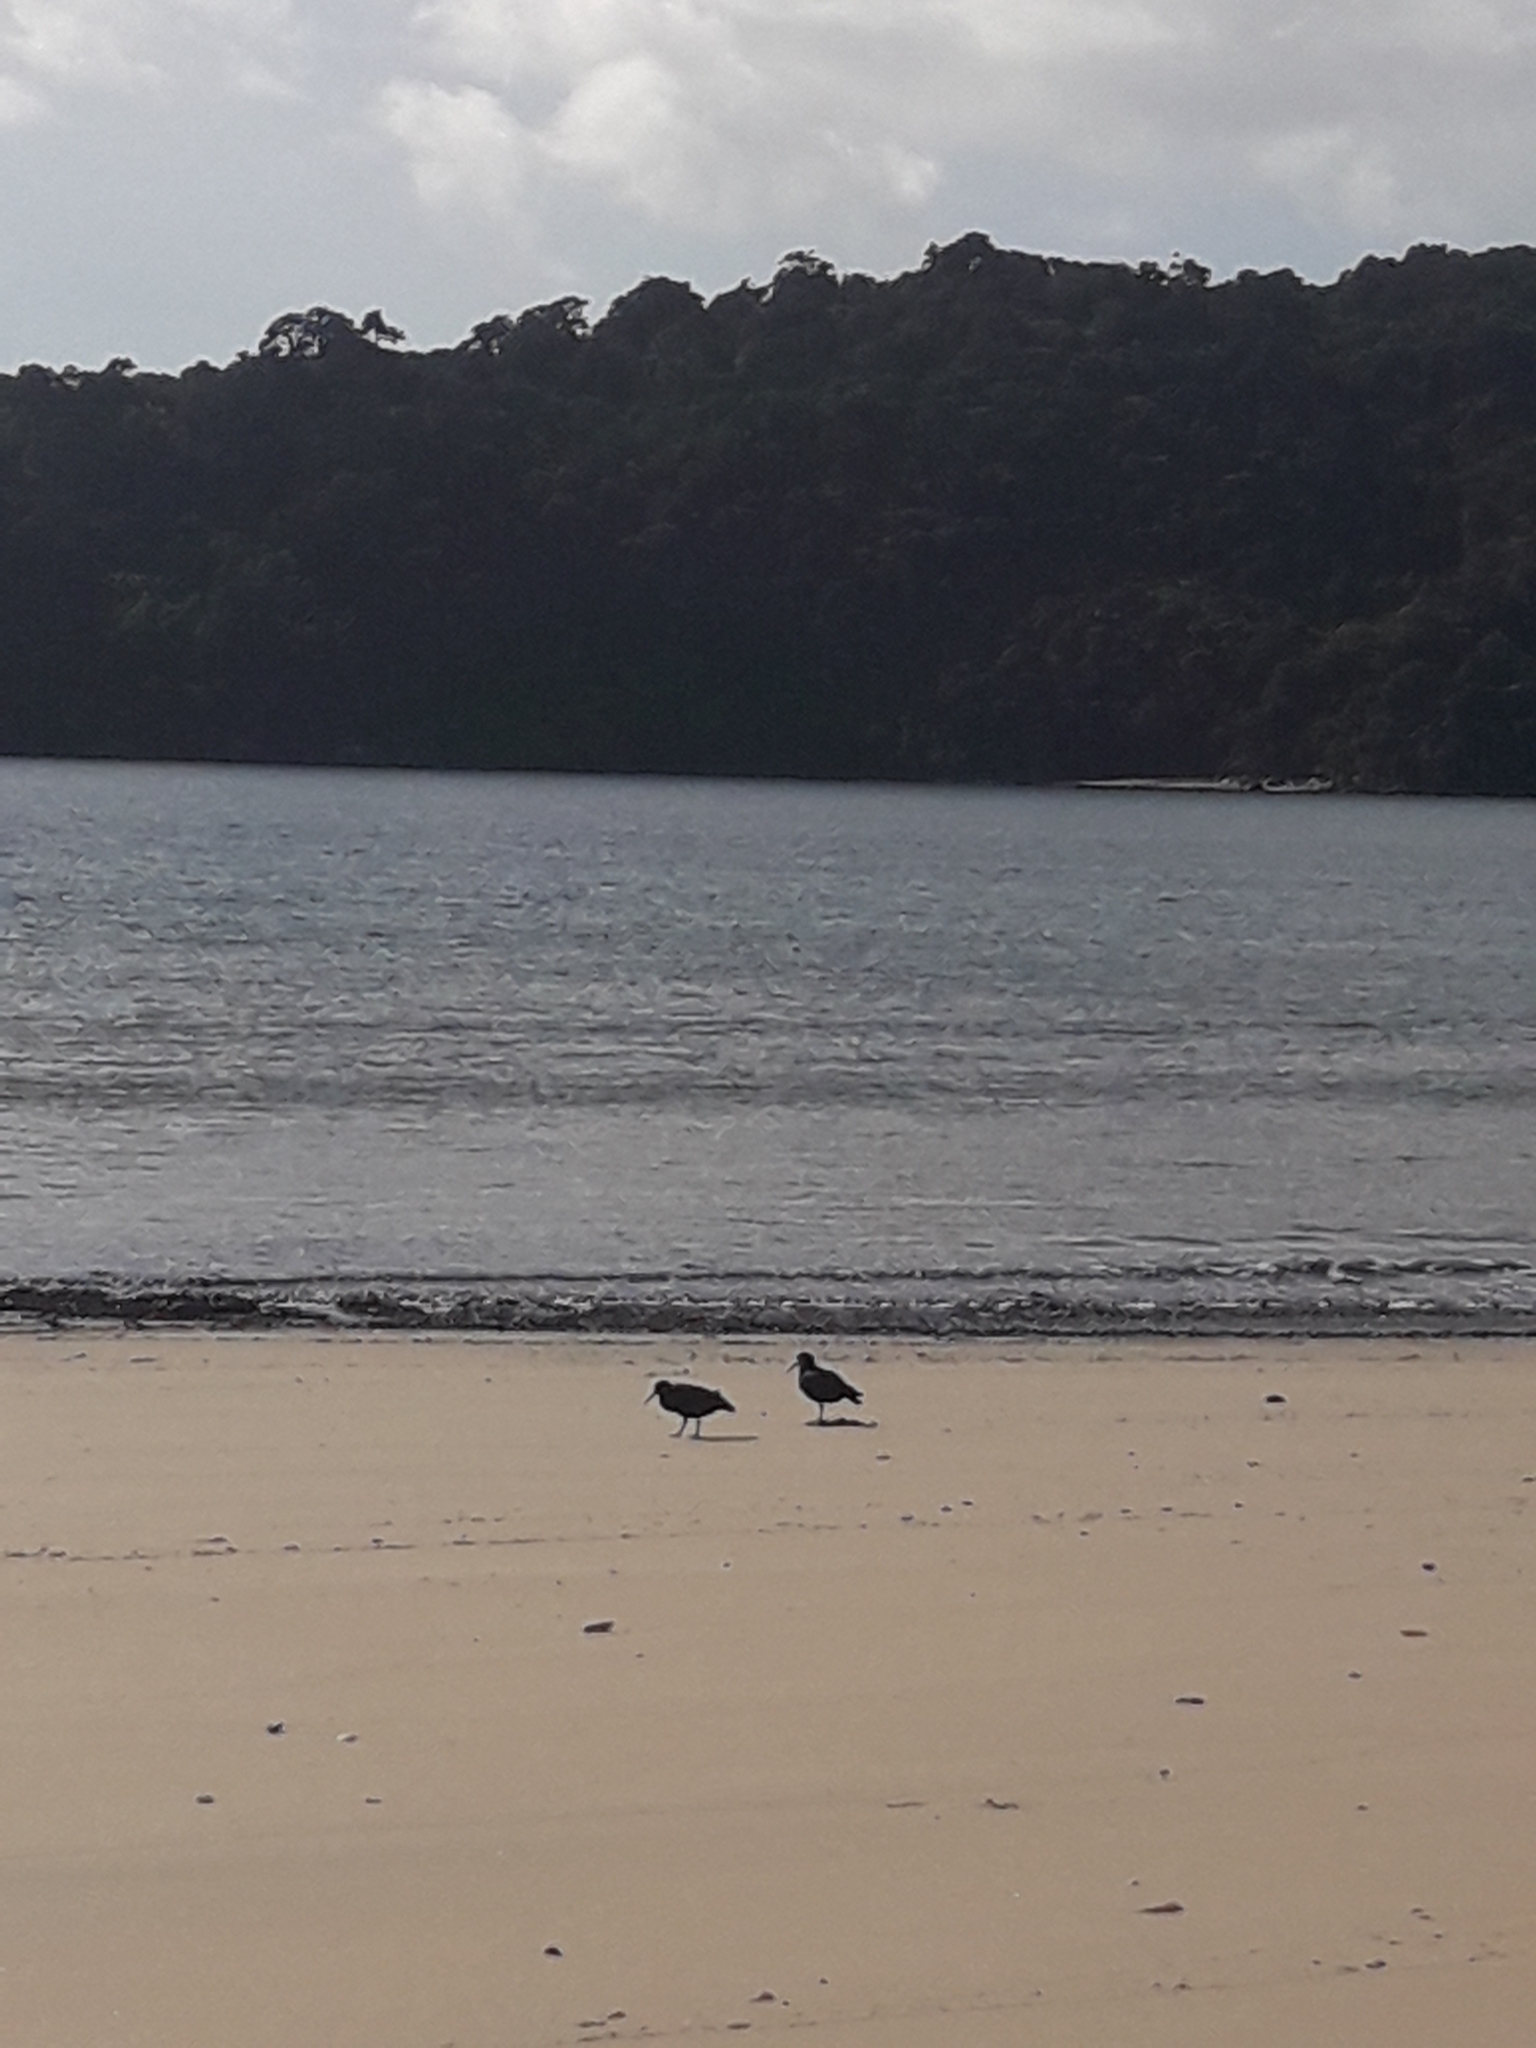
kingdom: Animalia
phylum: Chordata
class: Aves
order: Charadriiformes
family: Haematopodidae
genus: Haematopus
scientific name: Haematopus unicolor
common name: Variable oystercatcher
